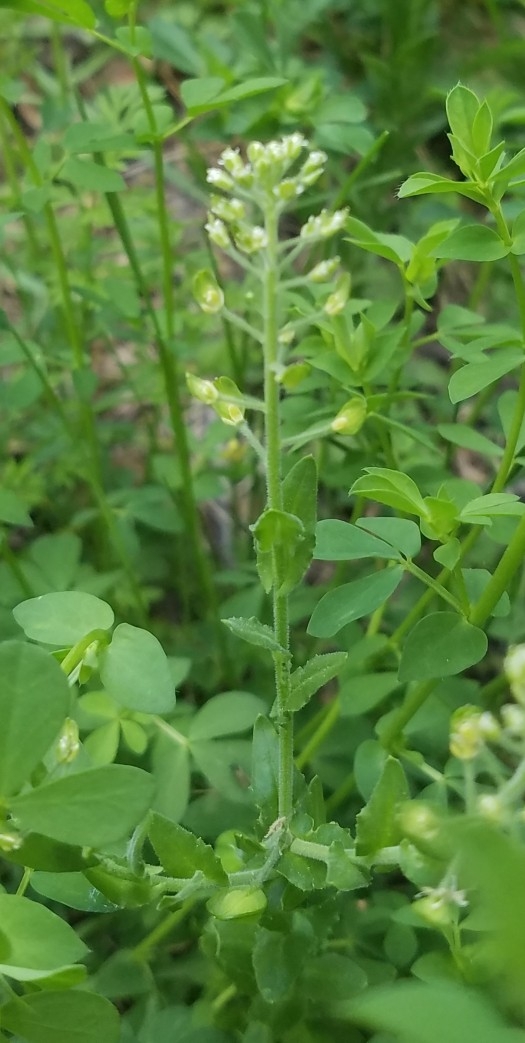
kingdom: Plantae
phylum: Tracheophyta
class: Magnoliopsida
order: Brassicales
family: Brassicaceae
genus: Lepidium
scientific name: Lepidium campestre
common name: Field pepperwort
